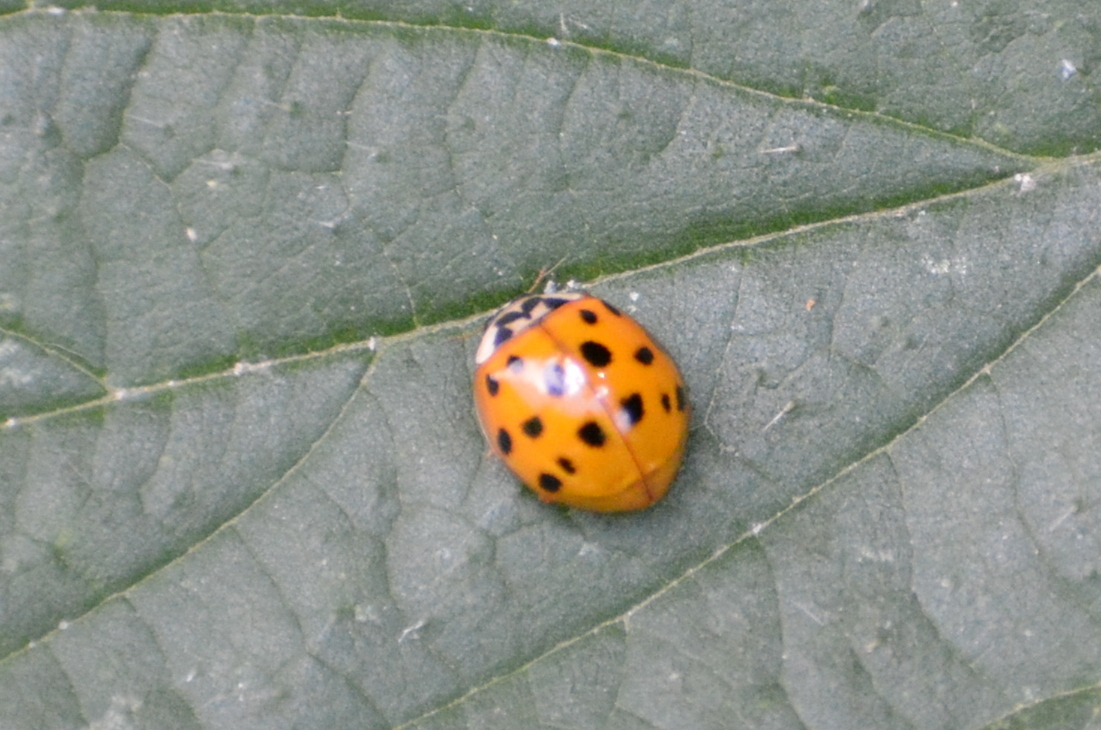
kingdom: Animalia
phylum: Arthropoda
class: Insecta
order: Coleoptera
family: Coccinellidae
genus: Harmonia
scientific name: Harmonia axyridis
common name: Harlequin ladybird
